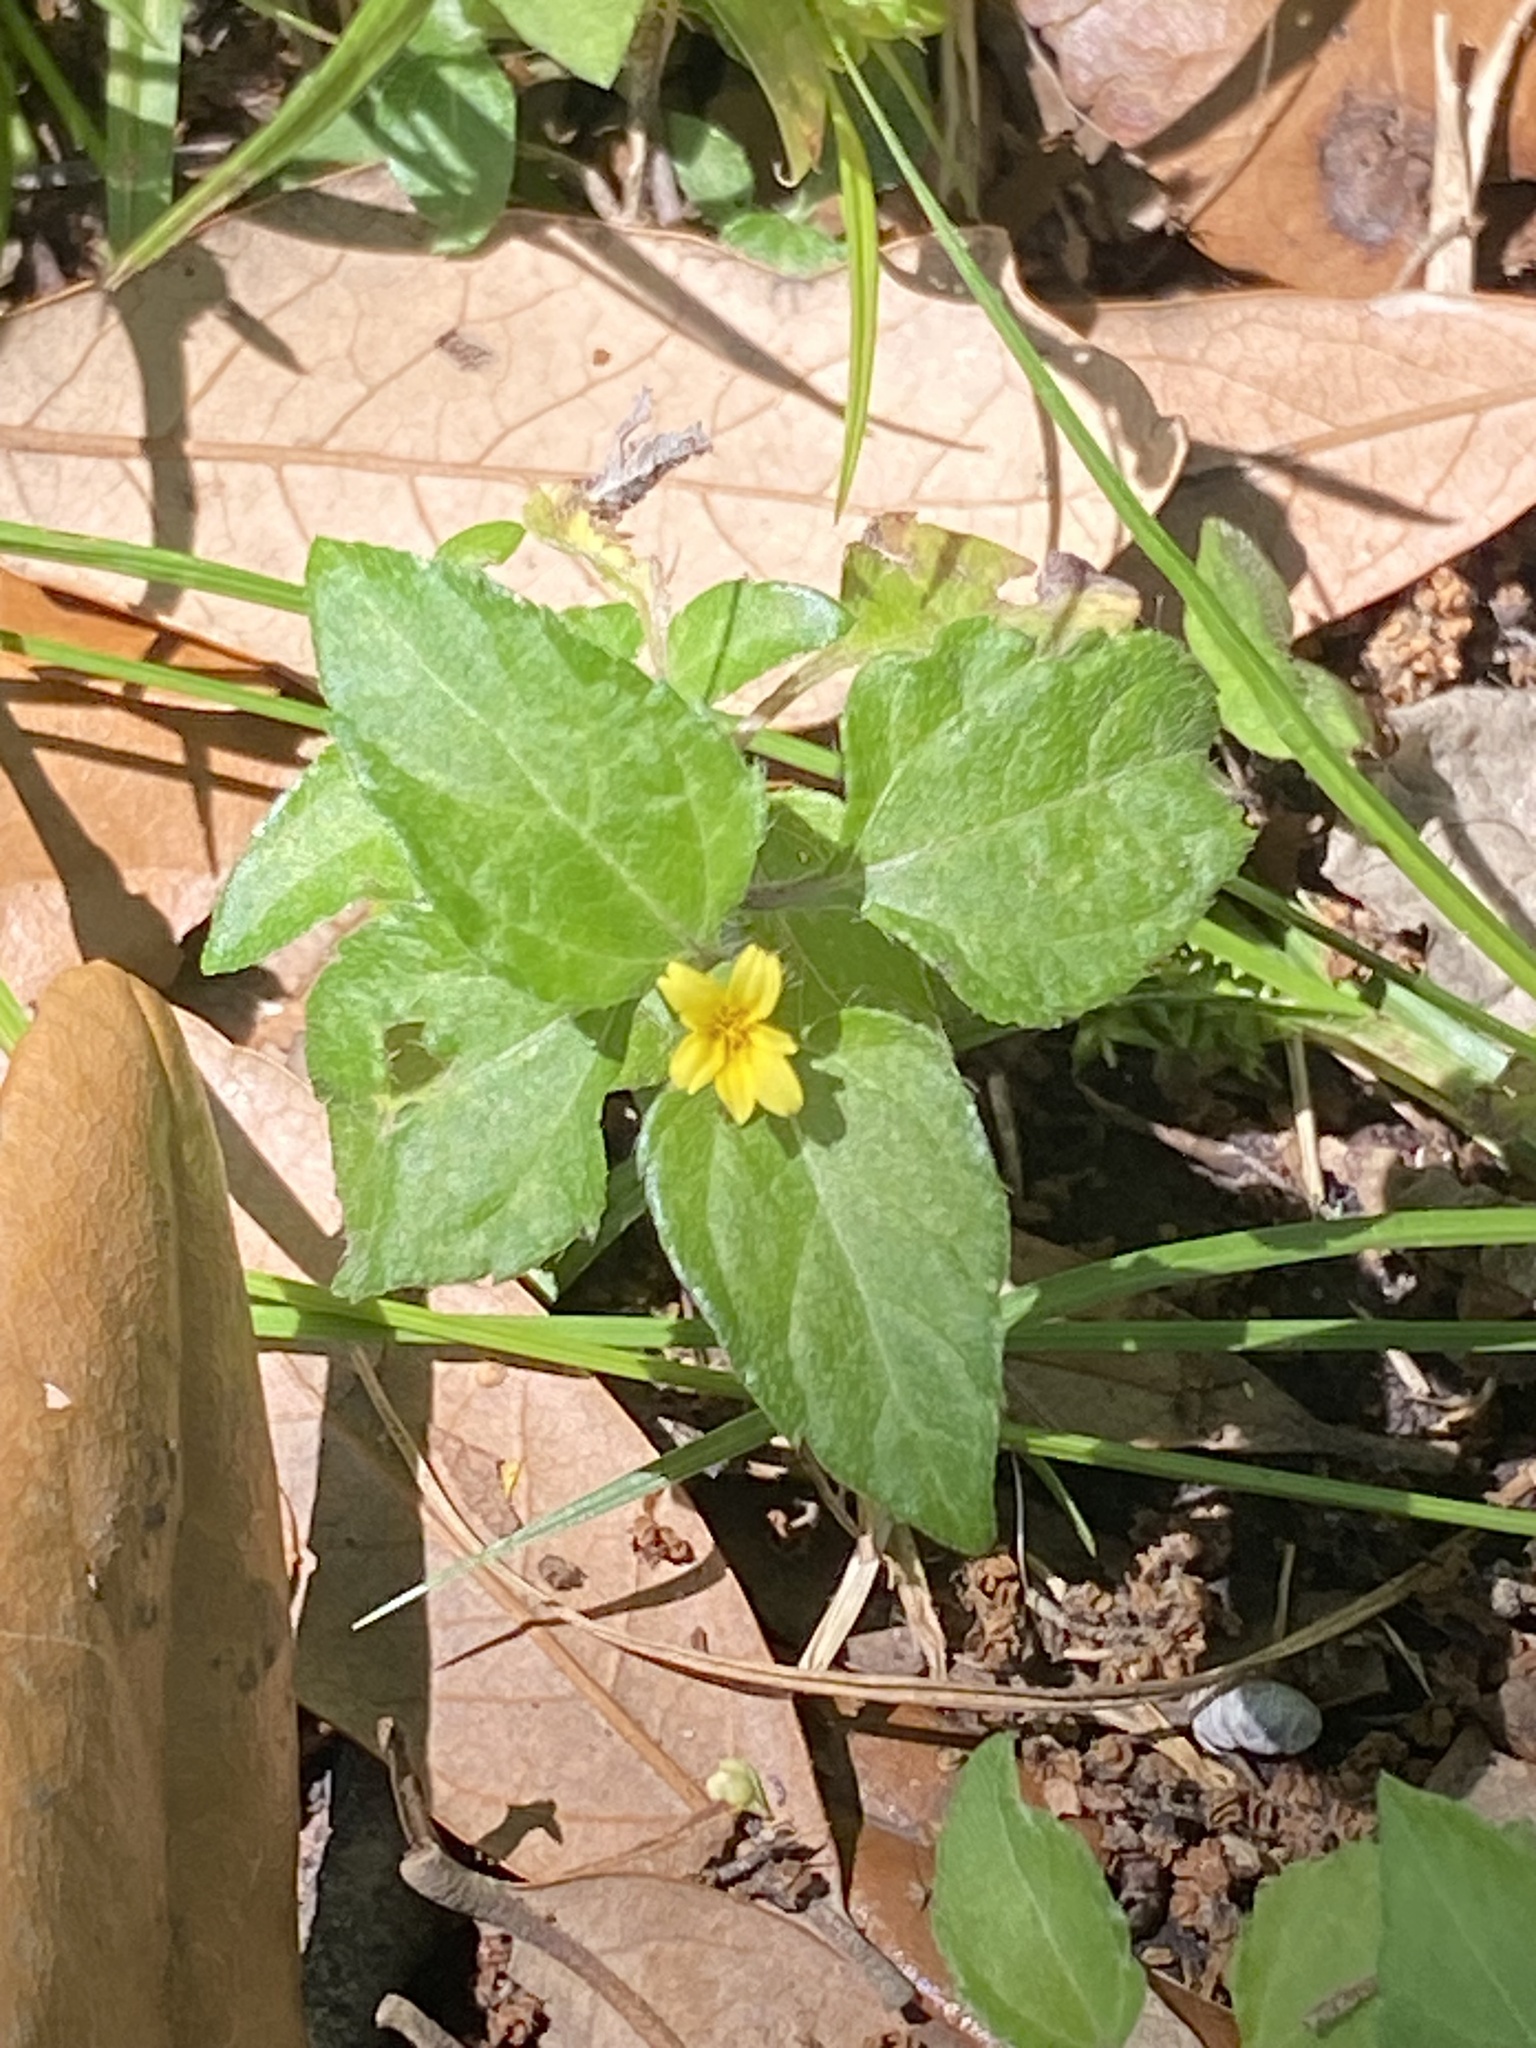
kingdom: Plantae
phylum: Tracheophyta
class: Magnoliopsida
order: Asterales
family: Asteraceae
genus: Calyptocarpus
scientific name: Calyptocarpus vialis
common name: Straggler daisy
